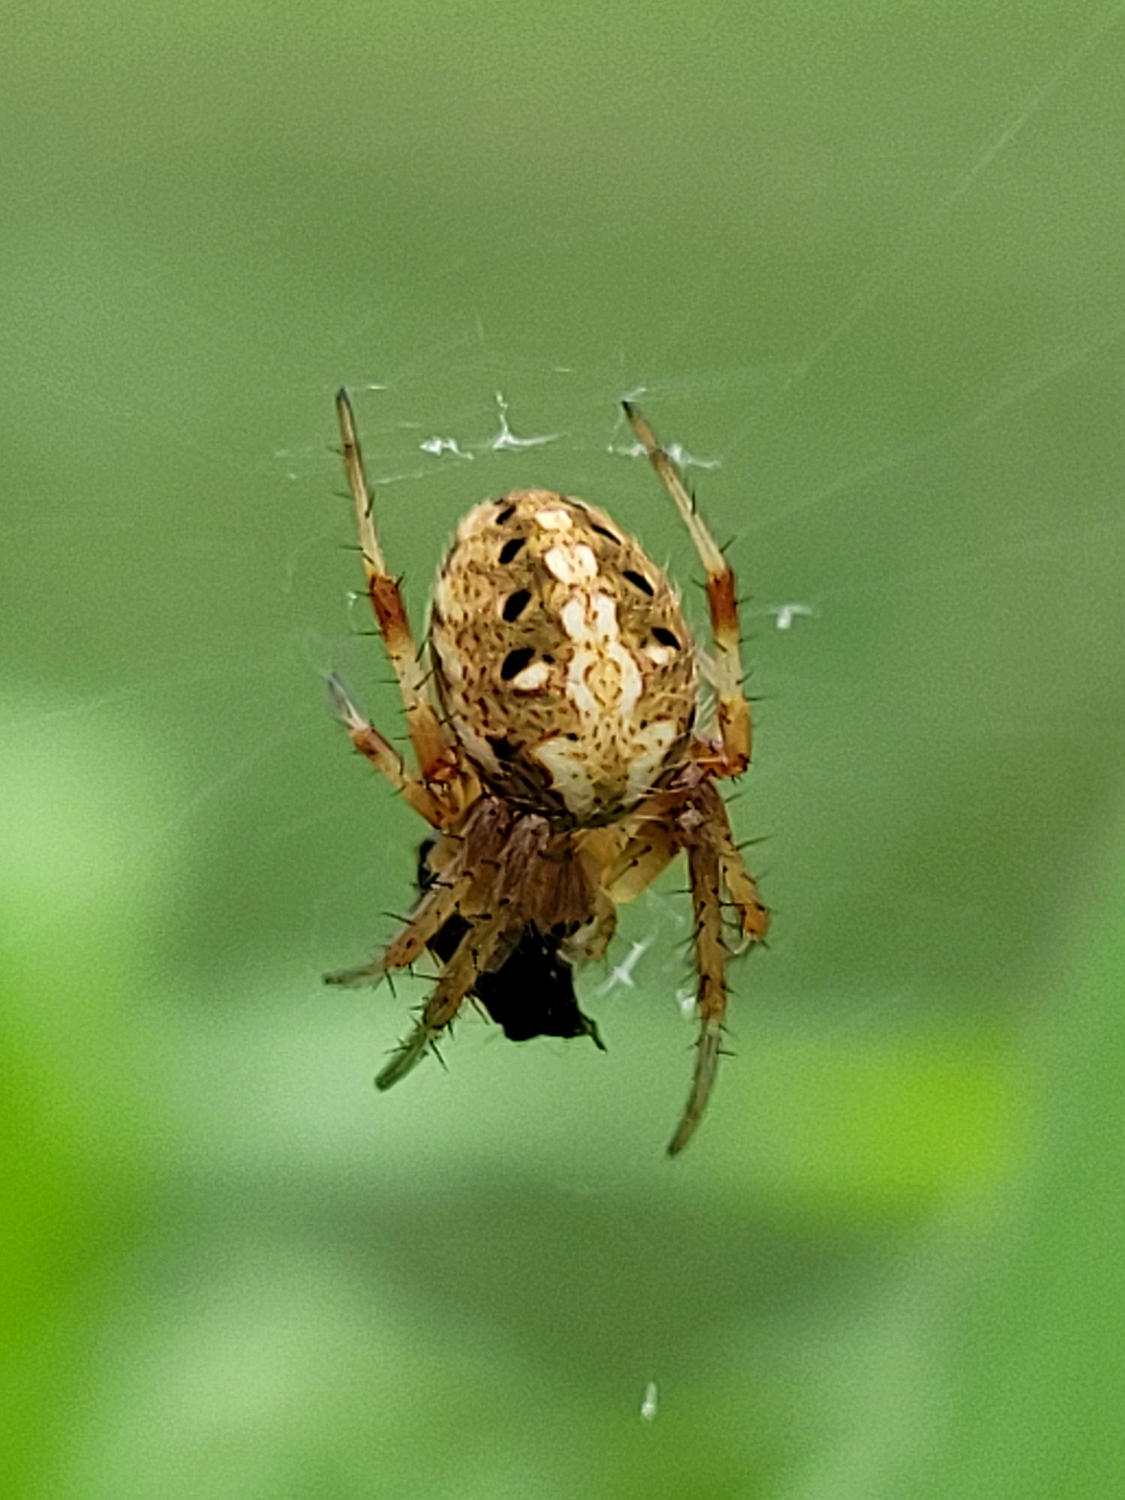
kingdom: Animalia
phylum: Arthropoda
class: Arachnida
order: Araneae
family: Araneidae
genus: Neoscona
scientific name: Neoscona arabesca
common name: Orb weavers
